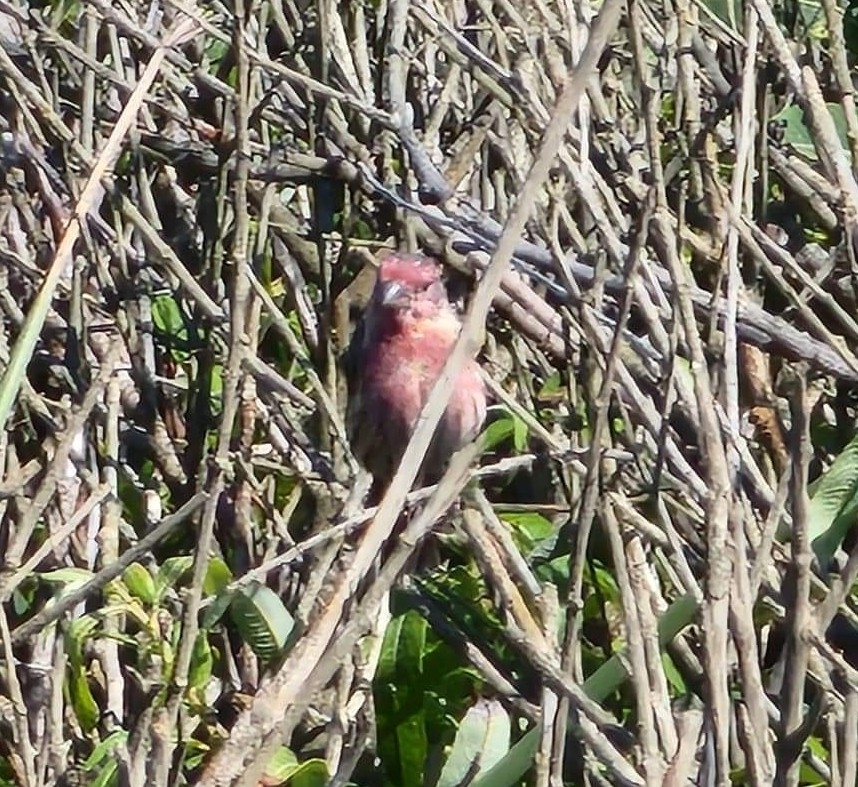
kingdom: Animalia
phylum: Chordata
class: Aves
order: Passeriformes
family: Fringillidae
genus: Haemorhous
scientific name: Haemorhous mexicanus
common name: House finch
